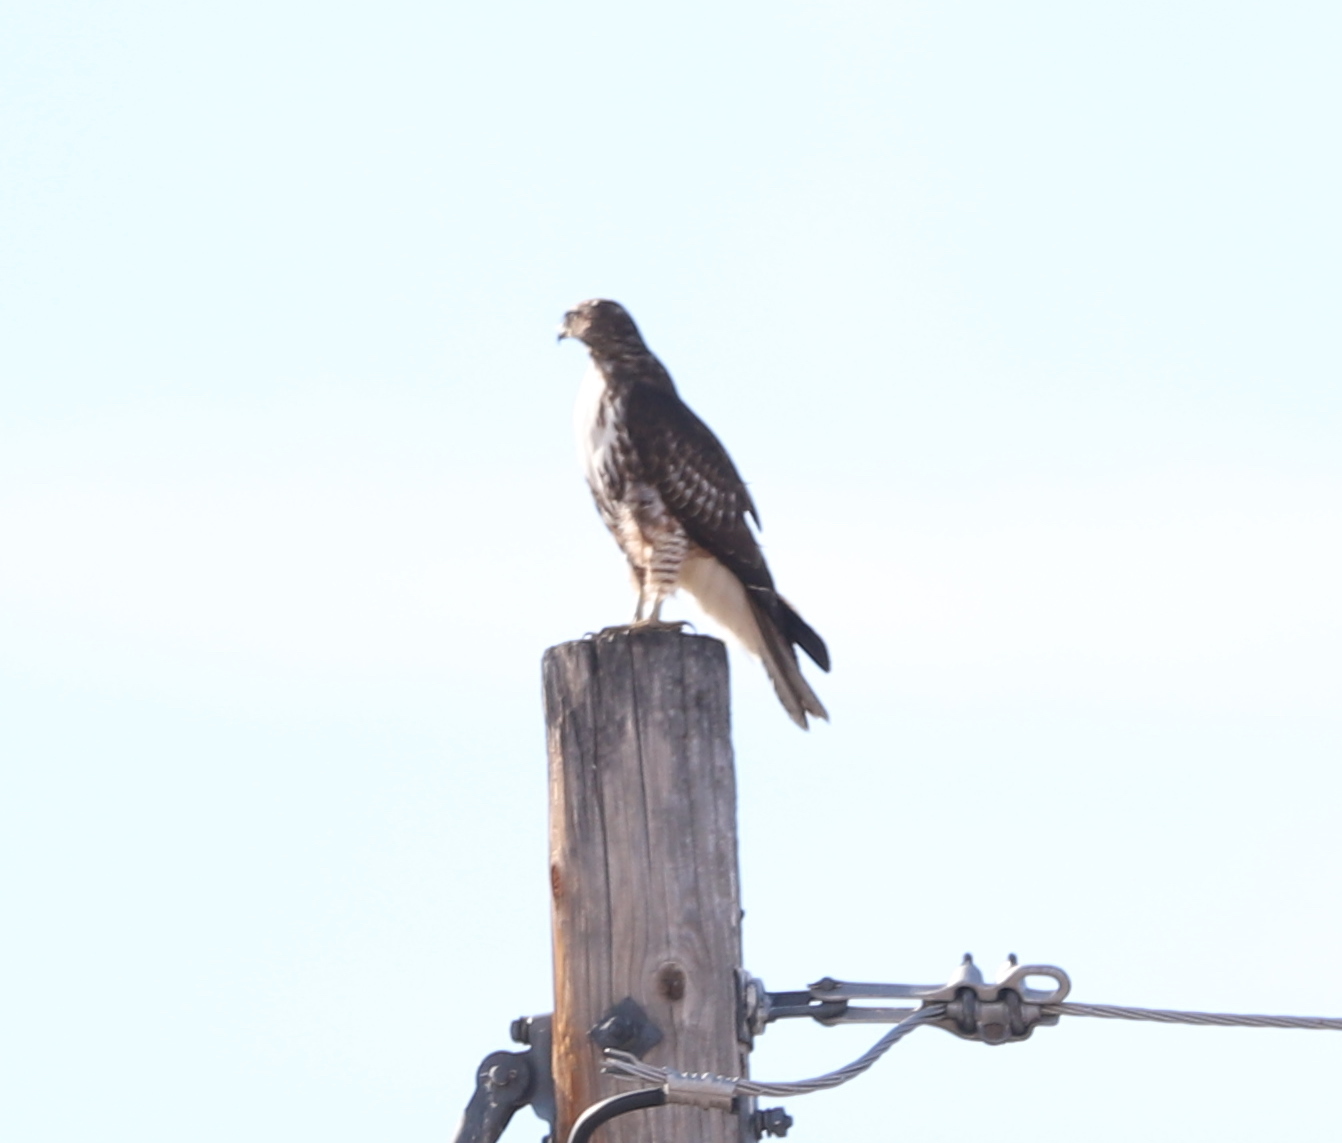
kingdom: Animalia
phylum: Chordata
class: Aves
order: Accipitriformes
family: Accipitridae
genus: Buteo
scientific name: Buteo jamaicensis
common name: Red-tailed hawk
